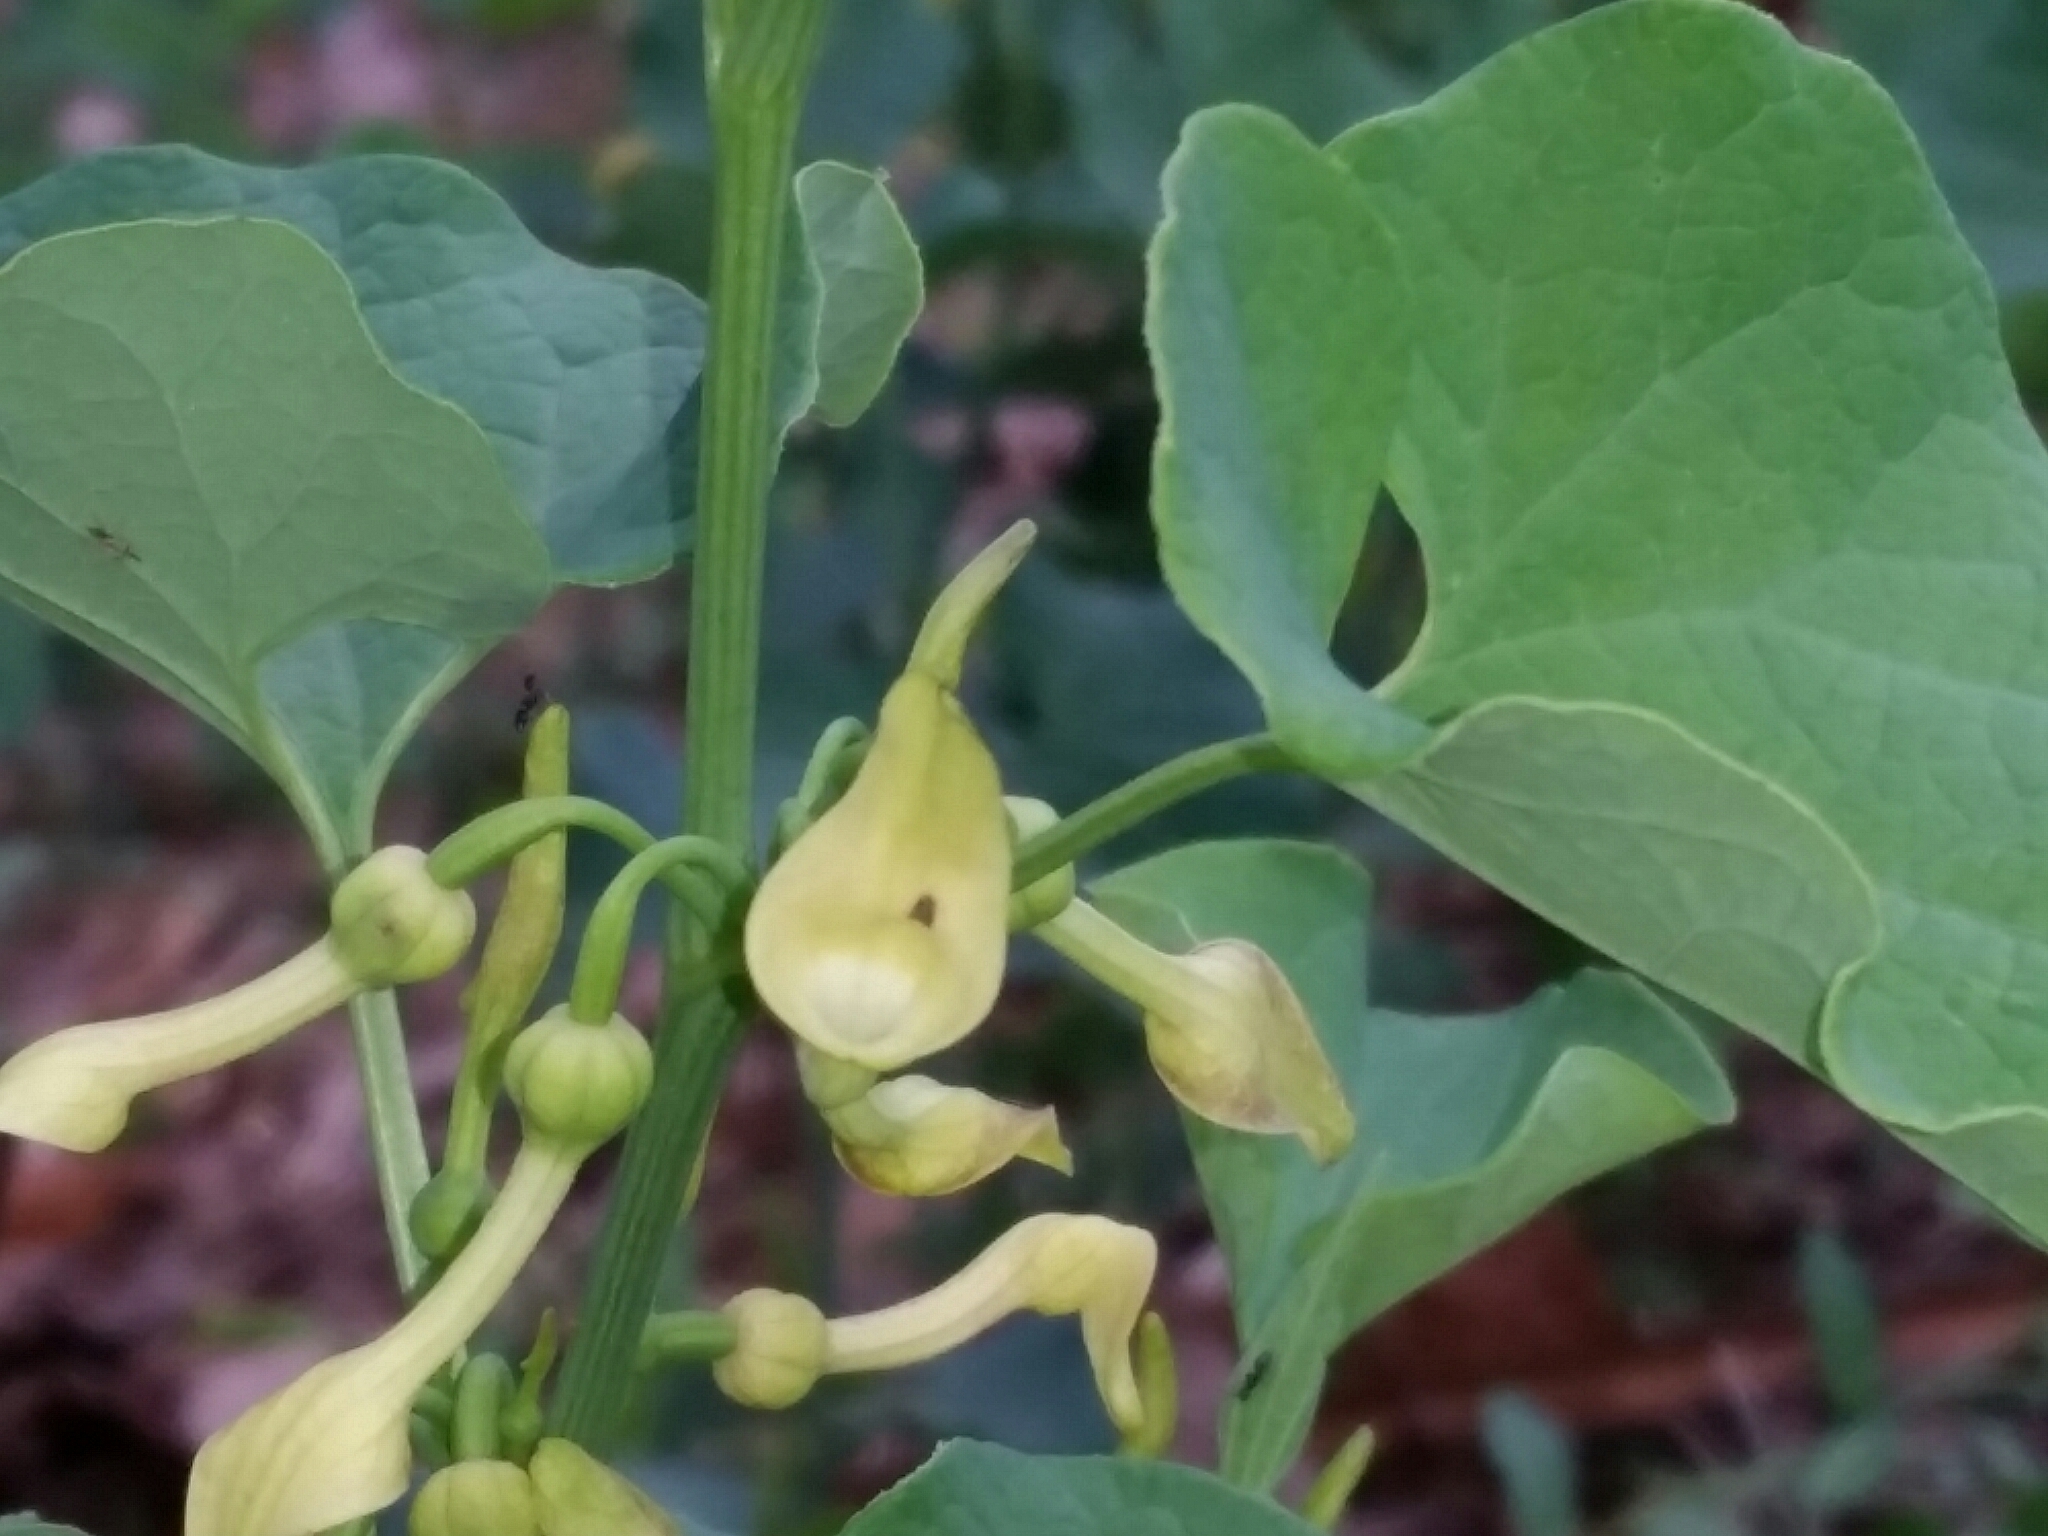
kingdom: Plantae
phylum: Tracheophyta
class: Magnoliopsida
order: Piperales
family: Aristolochiaceae
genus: Aristolochia
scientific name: Aristolochia clematitis
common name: Birthwort
